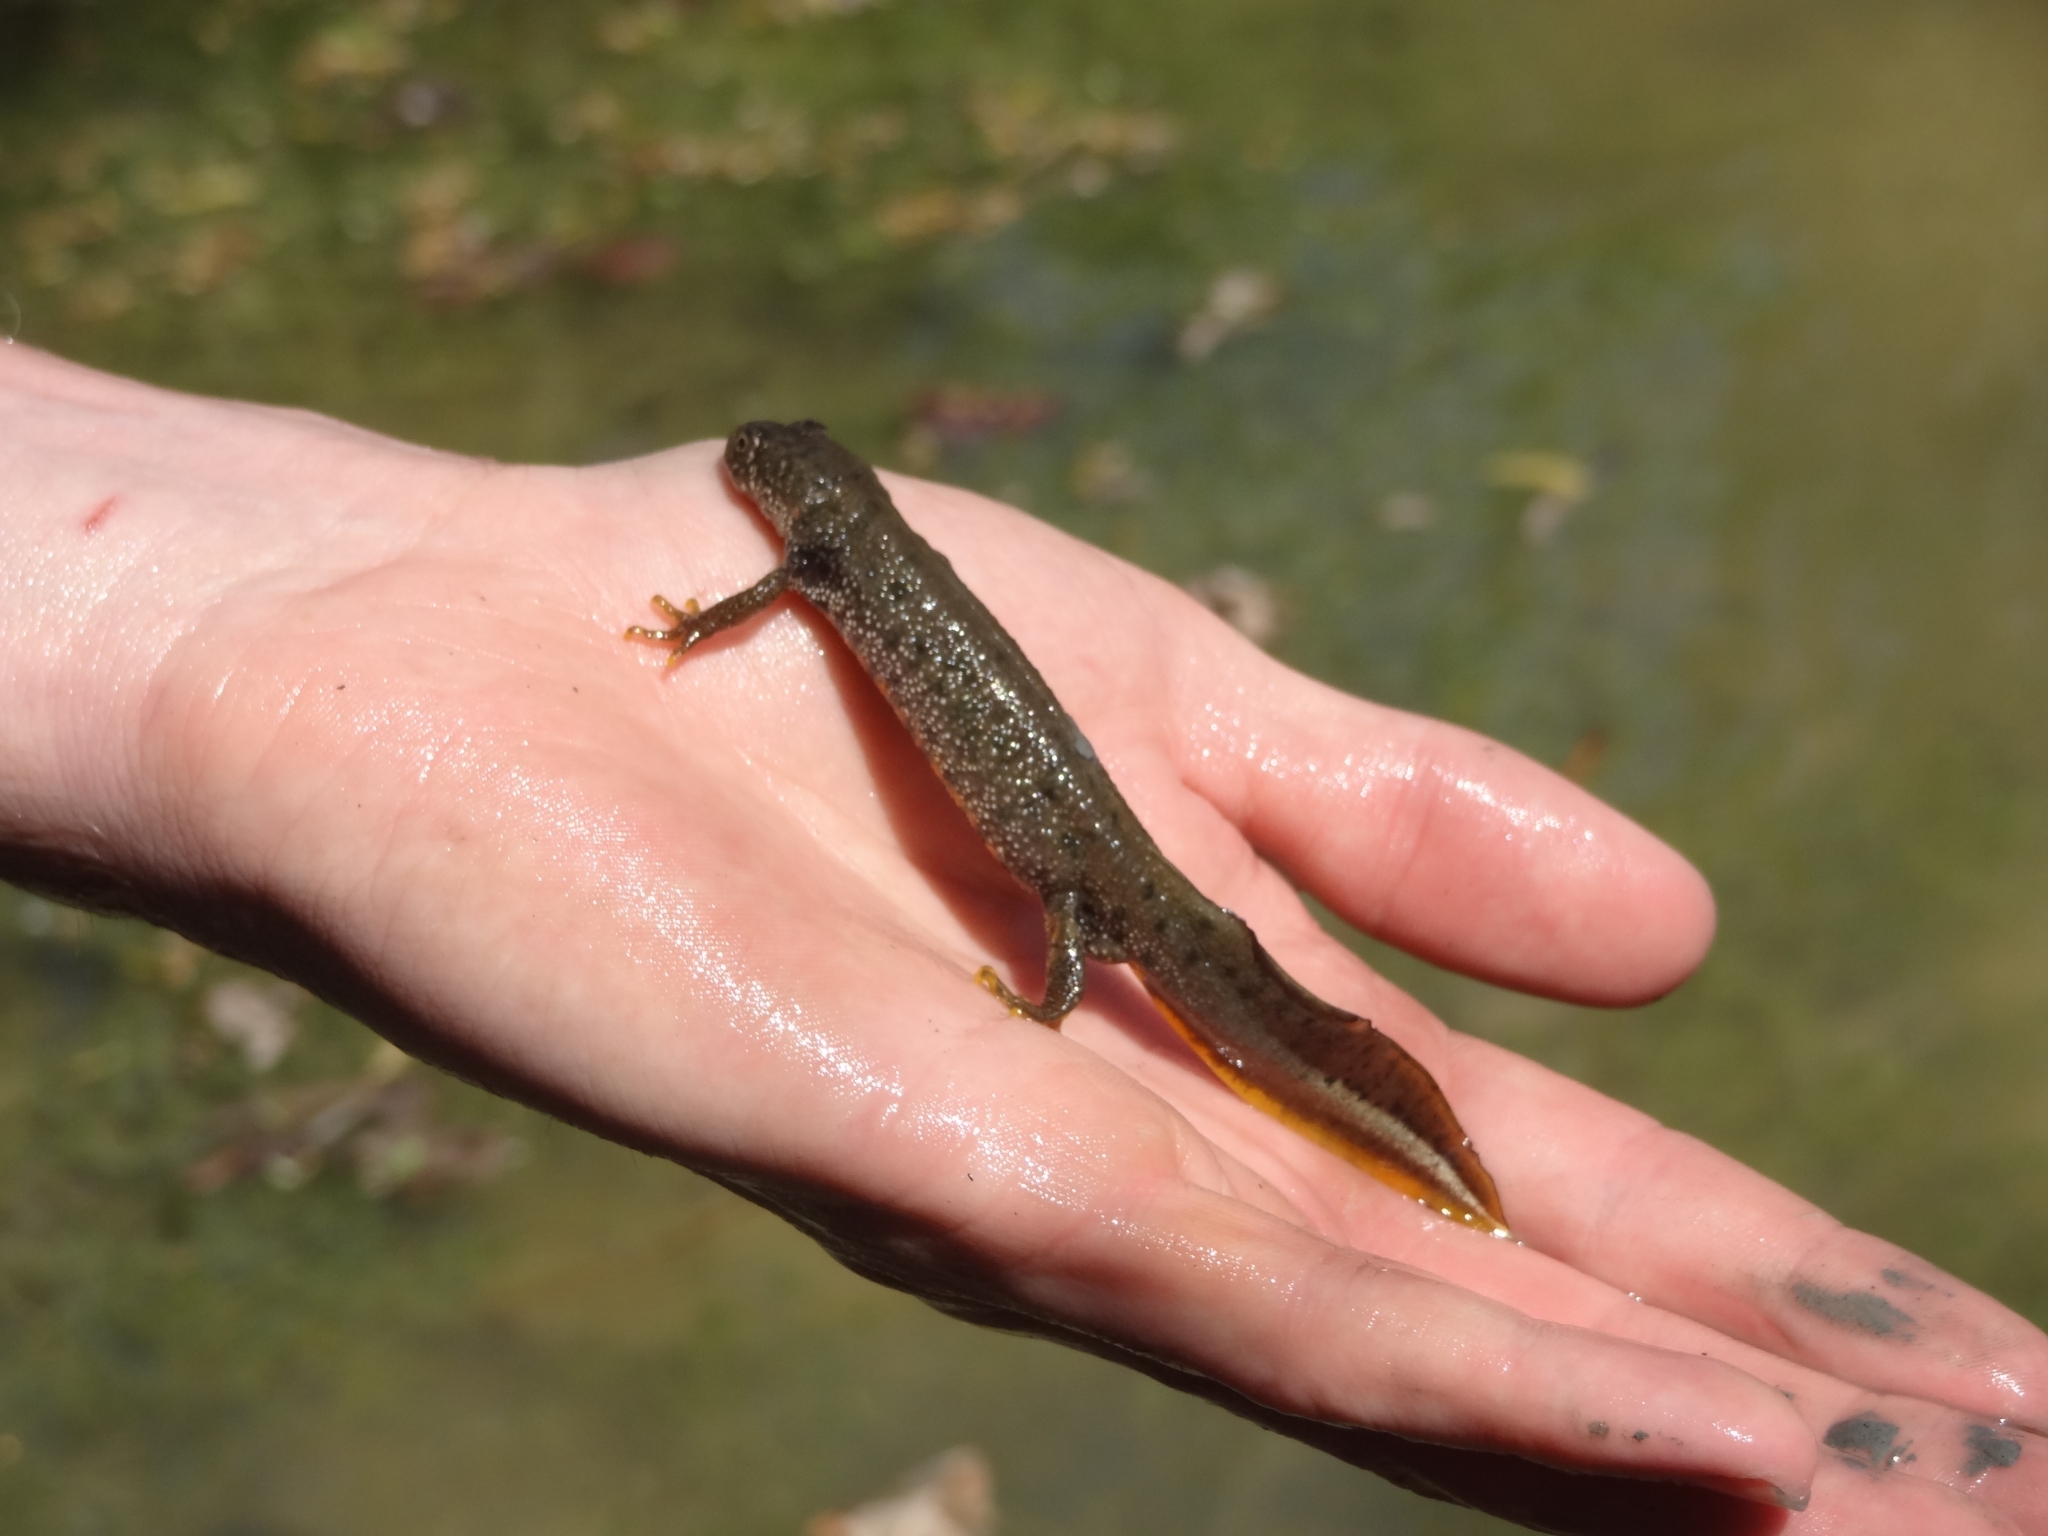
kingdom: Animalia
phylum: Chordata
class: Amphibia
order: Caudata
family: Salamandridae
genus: Triturus
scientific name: Triturus cristatus
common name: Crested newt
